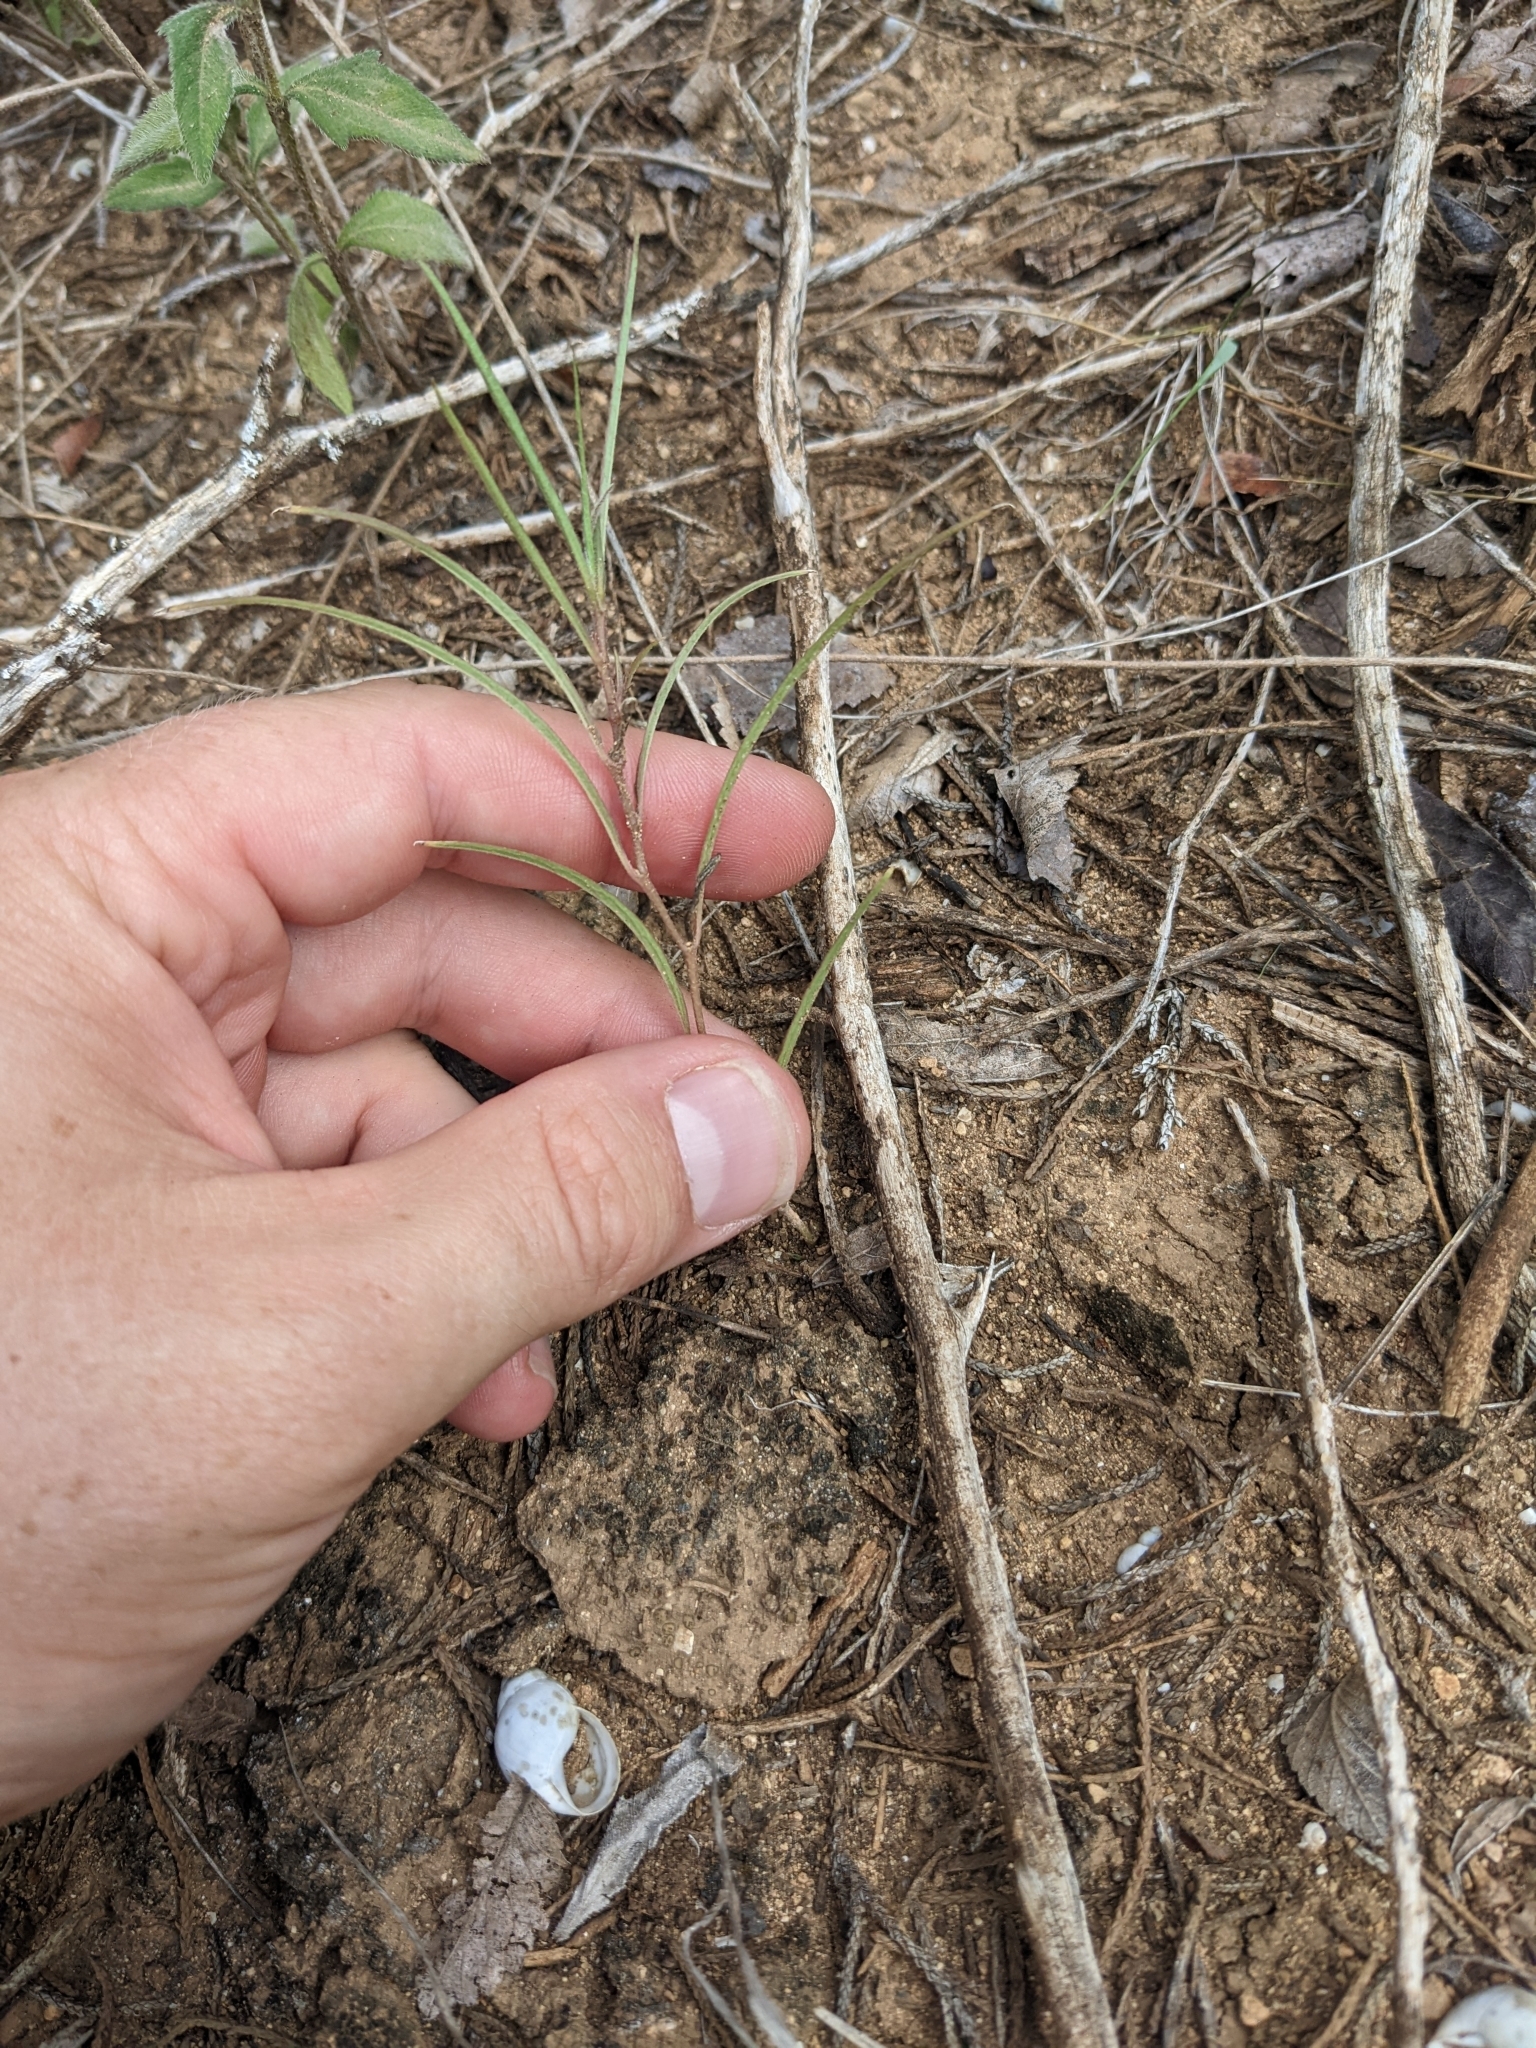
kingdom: Plantae
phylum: Tracheophyta
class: Magnoliopsida
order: Piperales
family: Aristolochiaceae
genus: Aristolochia
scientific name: Aristolochia erecta
